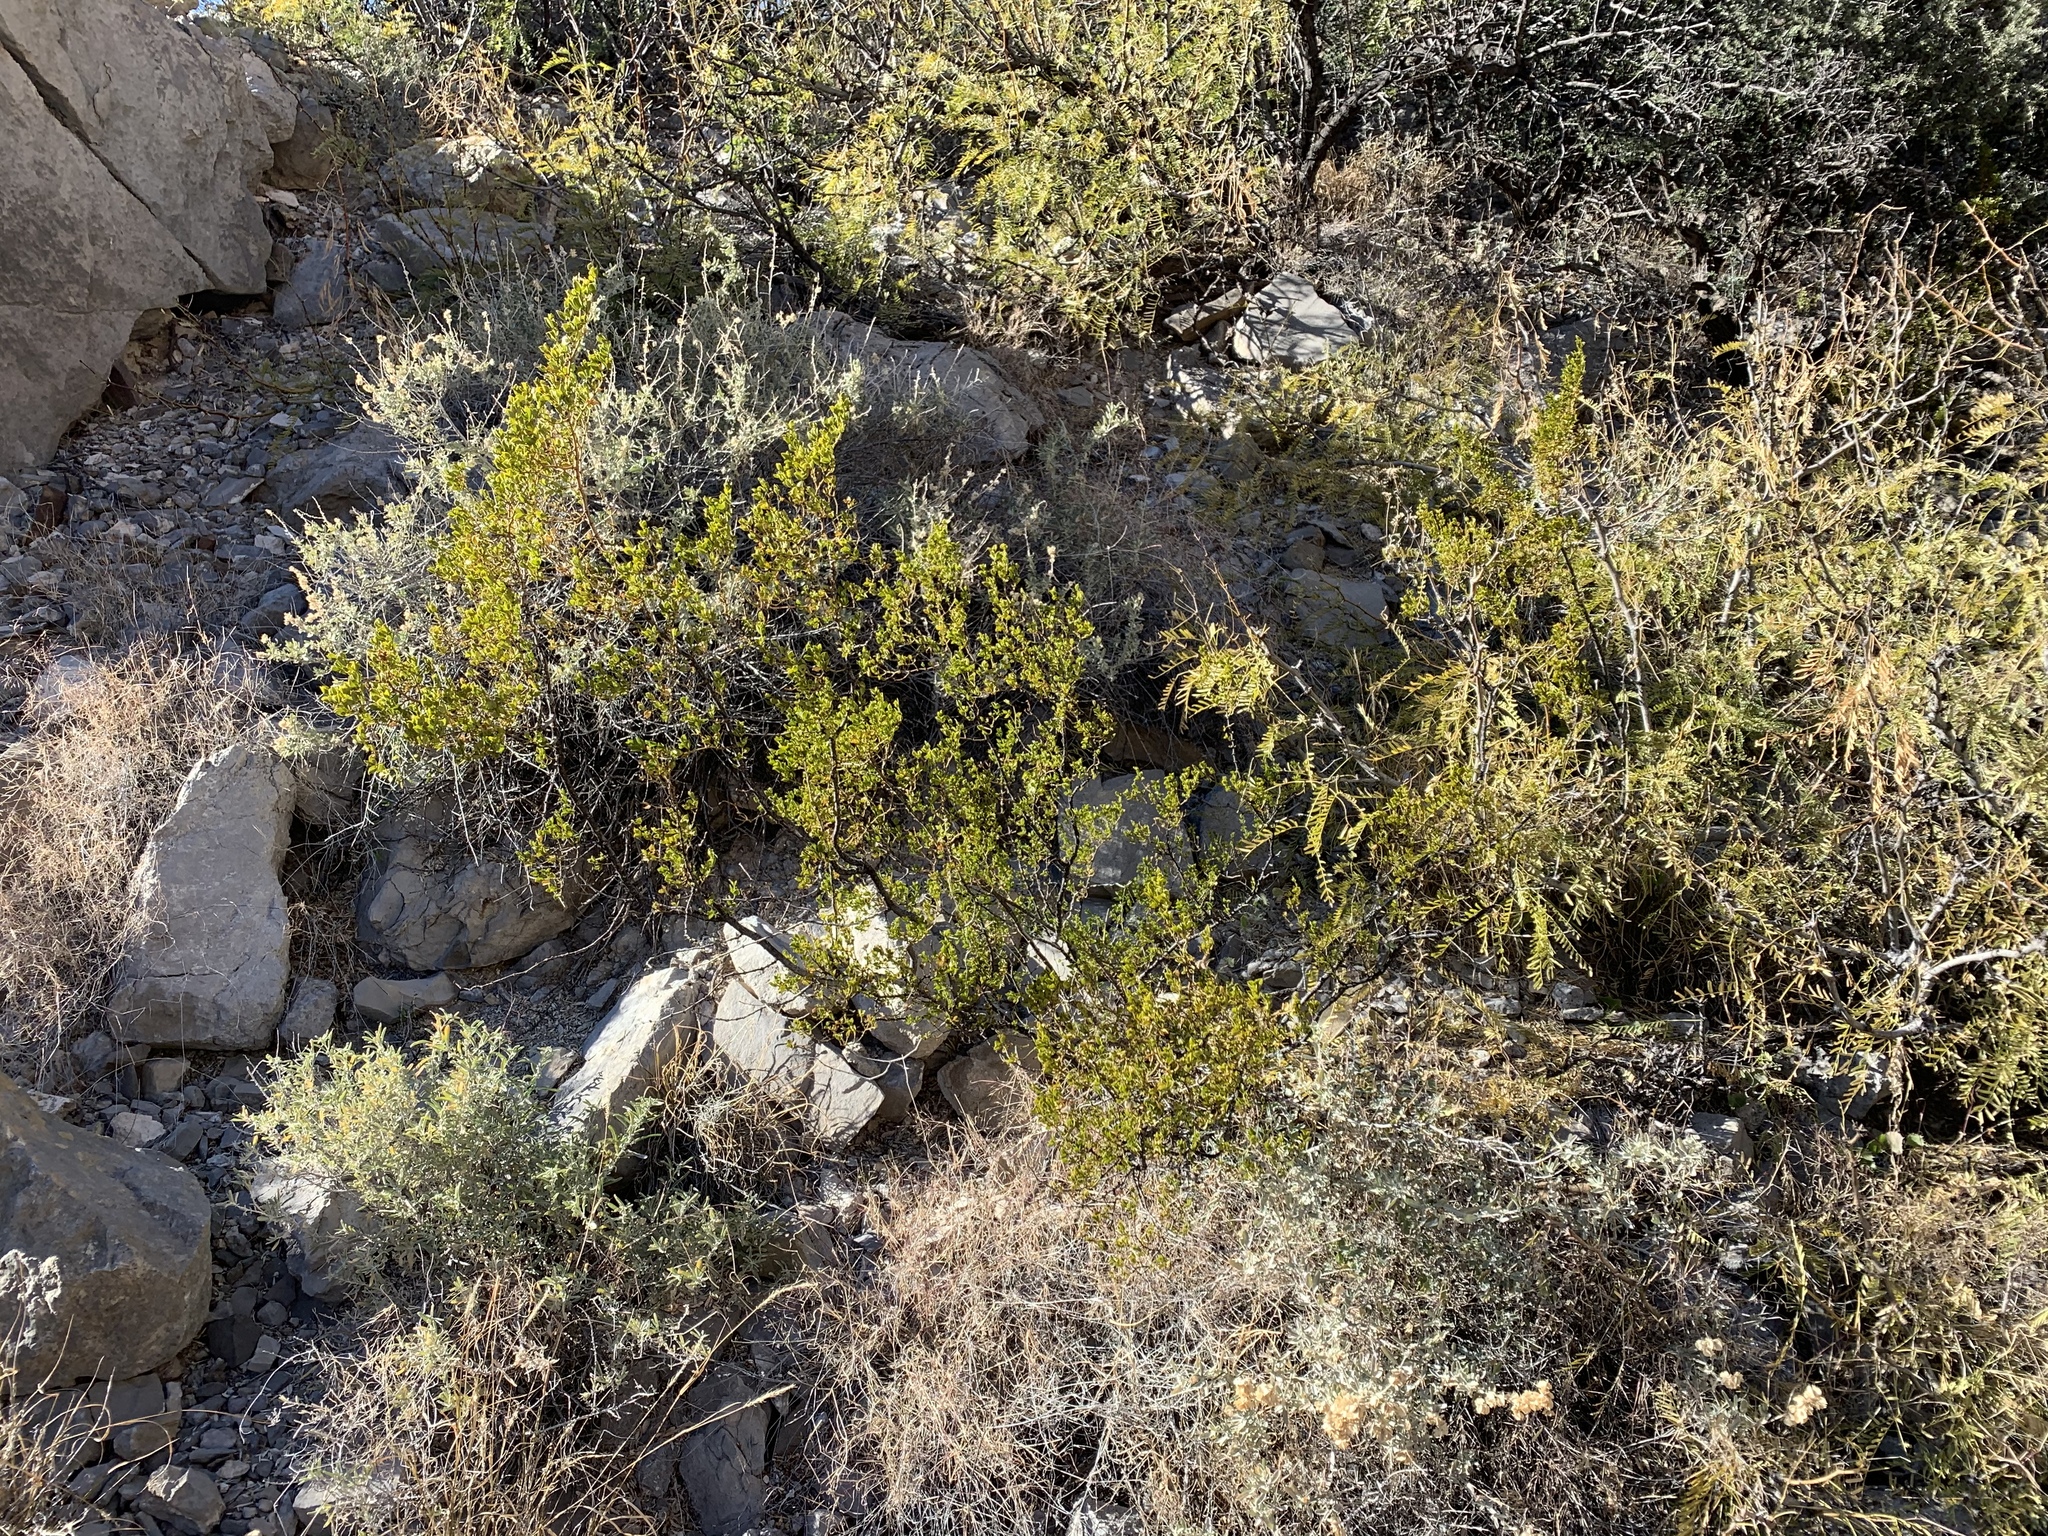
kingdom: Plantae
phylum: Tracheophyta
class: Magnoliopsida
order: Zygophyllales
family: Zygophyllaceae
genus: Larrea
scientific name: Larrea tridentata
